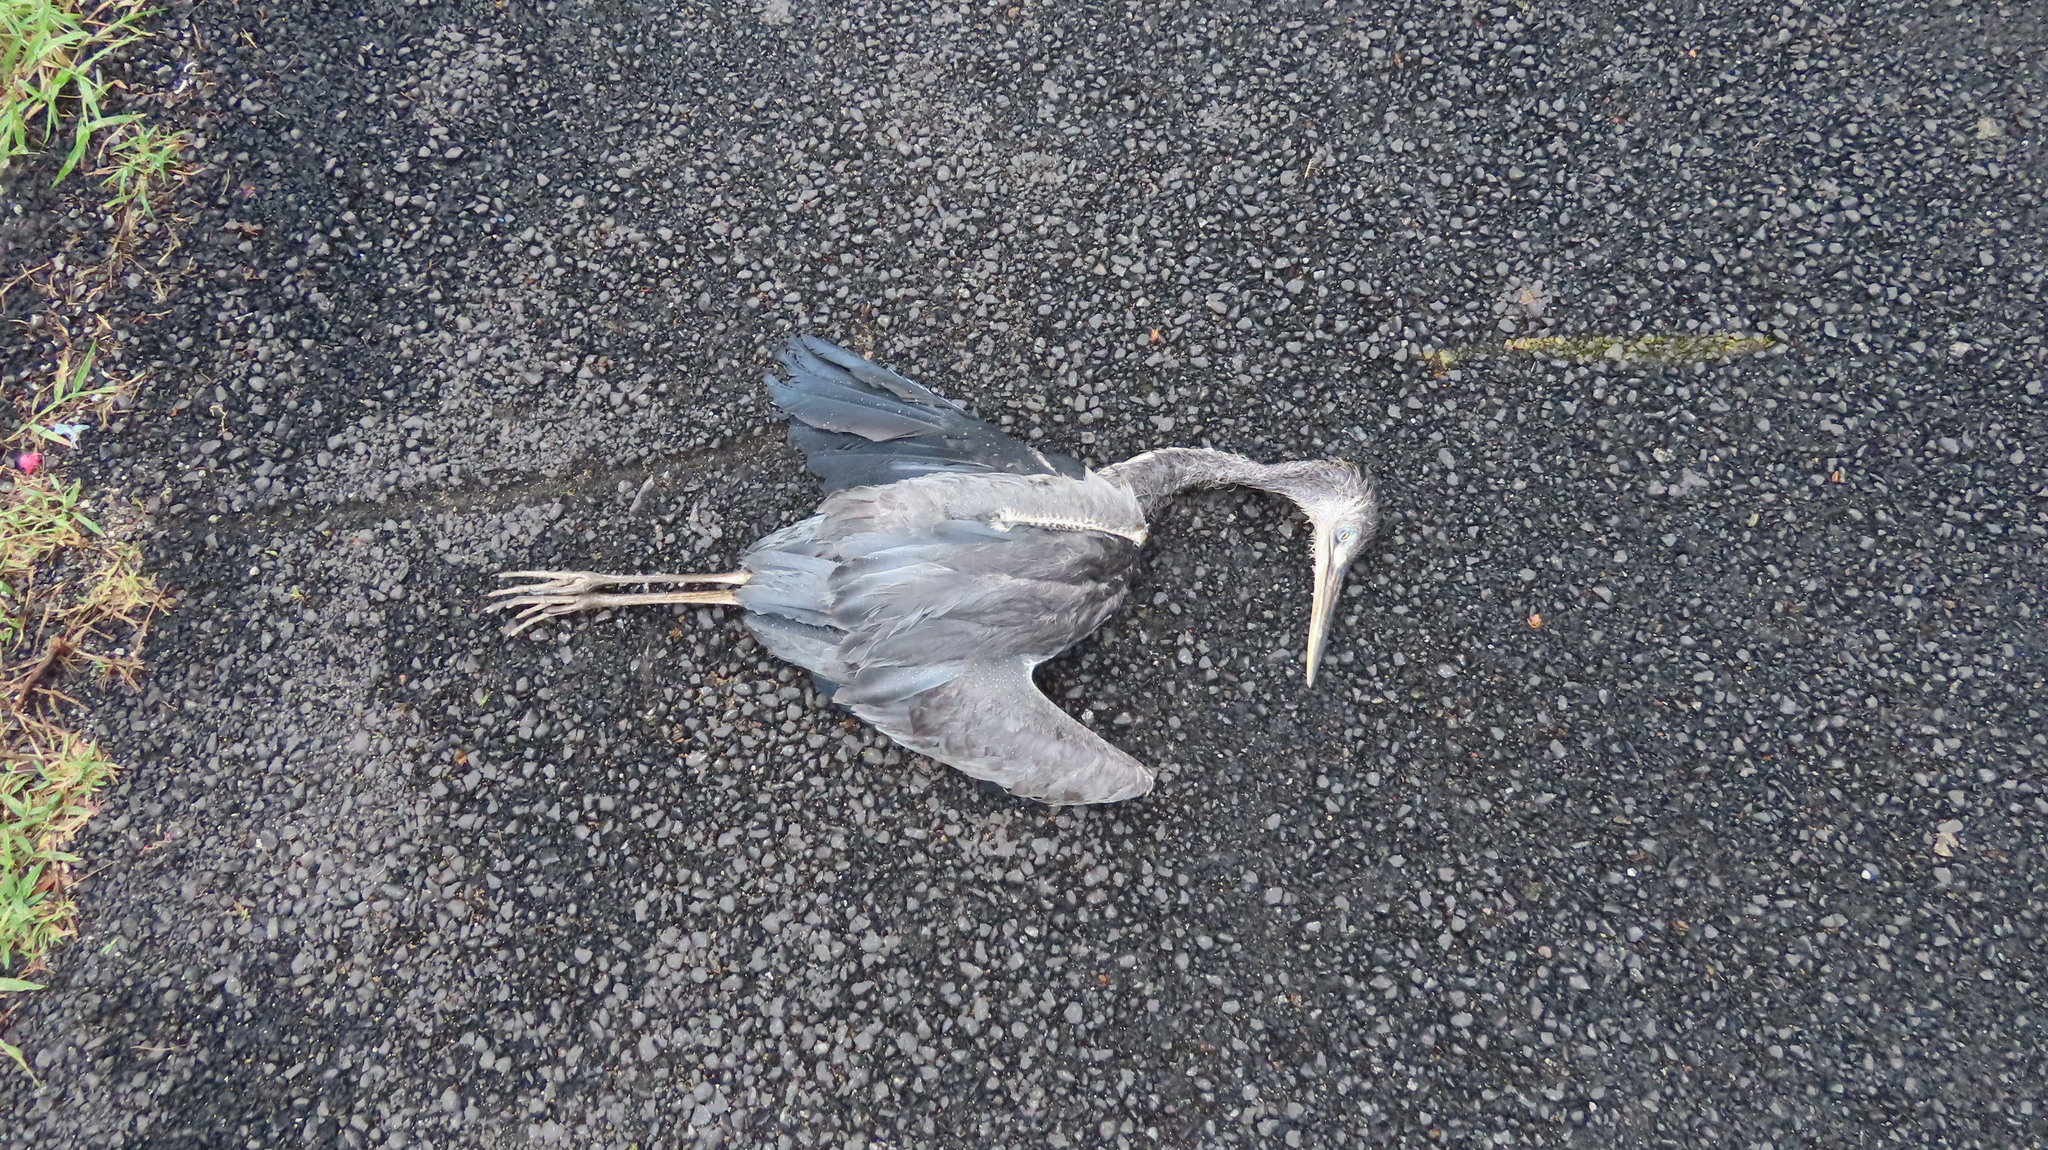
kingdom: Animalia
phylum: Chordata
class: Aves
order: Pelecaniformes
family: Ardeidae
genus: Egretta
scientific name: Egretta gularis
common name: Western reef-heron
